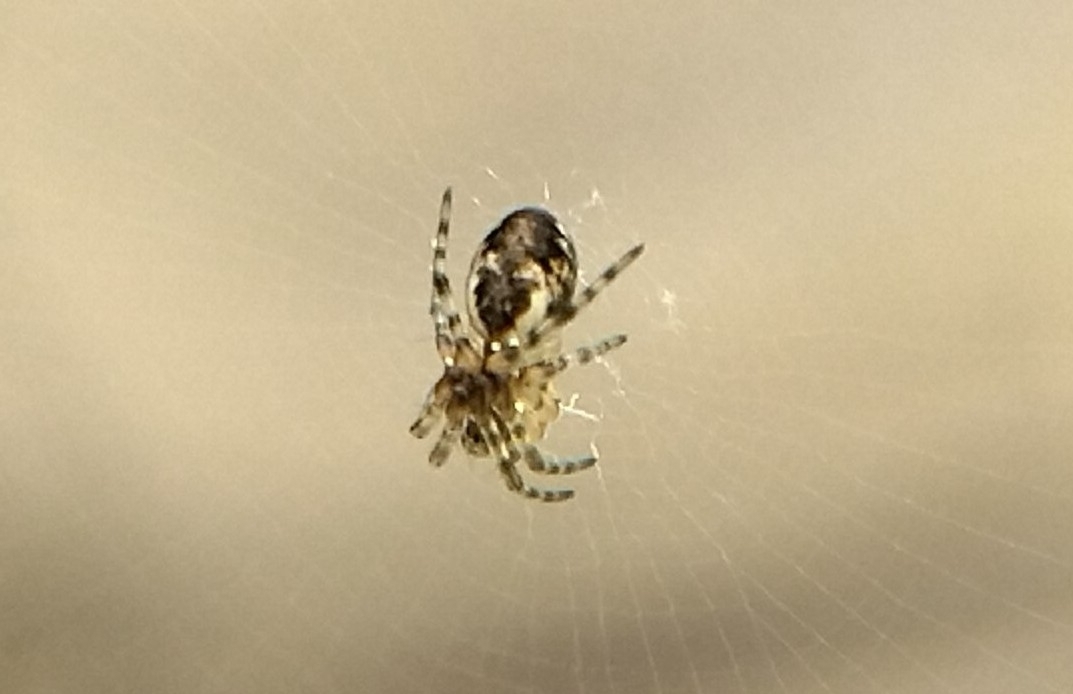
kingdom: Animalia
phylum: Arthropoda
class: Arachnida
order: Araneae
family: Araneidae
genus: Cyclosa
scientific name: Cyclosa conica
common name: Conical trashline orbweaver
